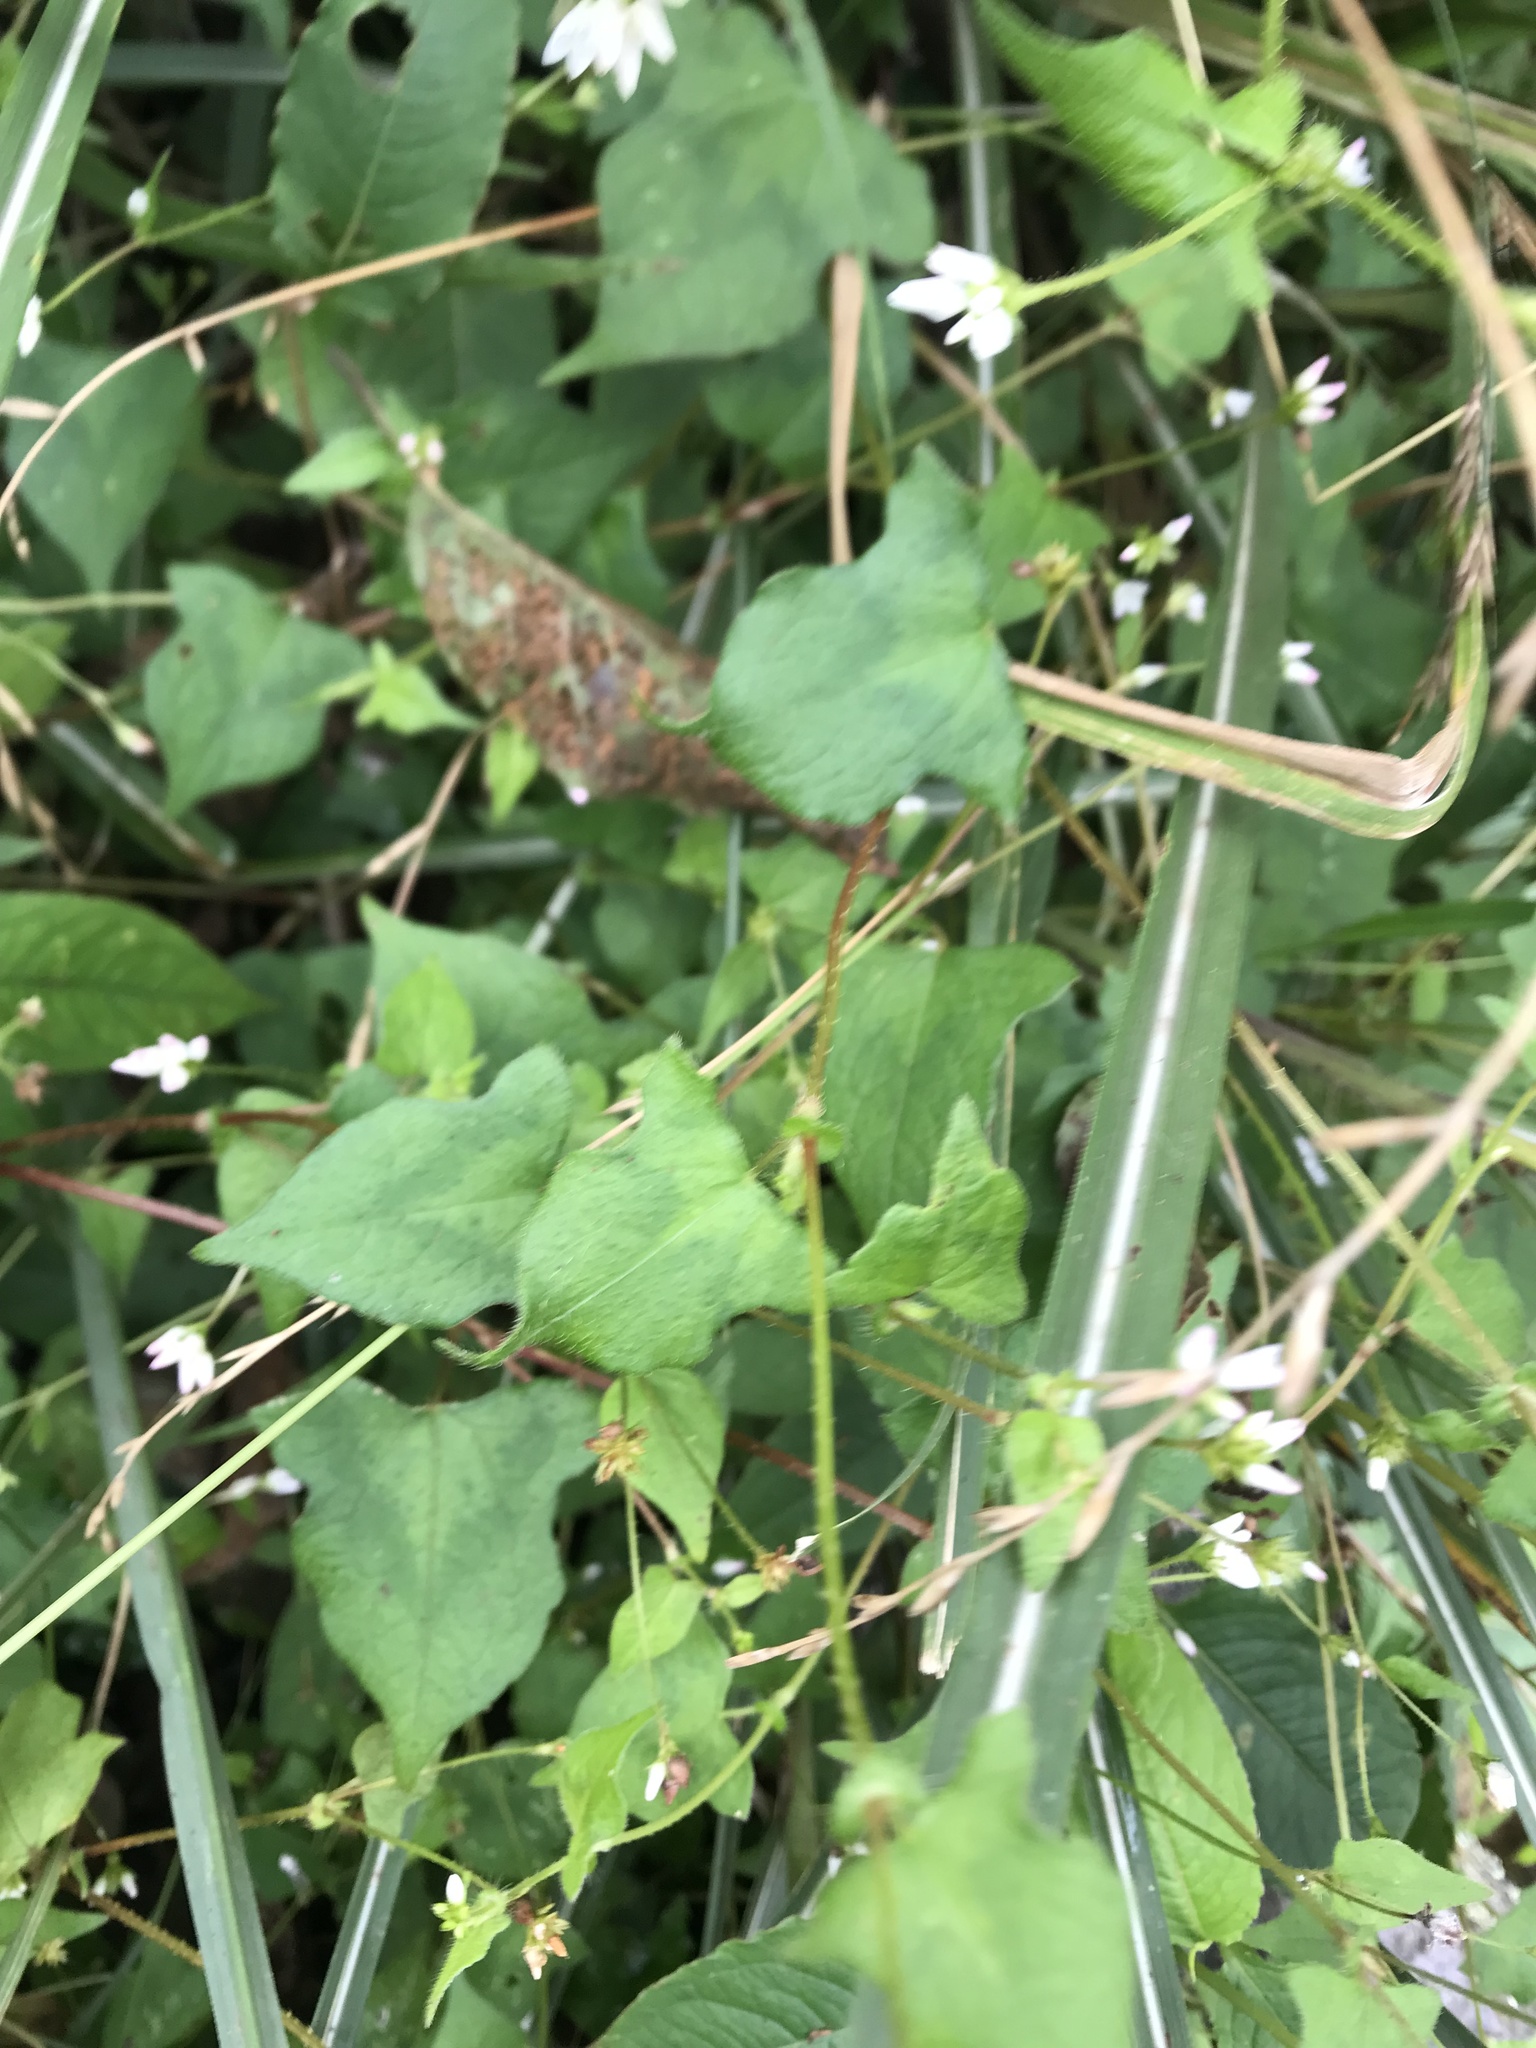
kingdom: Plantae
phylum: Tracheophyta
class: Magnoliopsida
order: Caryophyllales
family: Polygonaceae
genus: Persicaria
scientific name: Persicaria biconvexa
